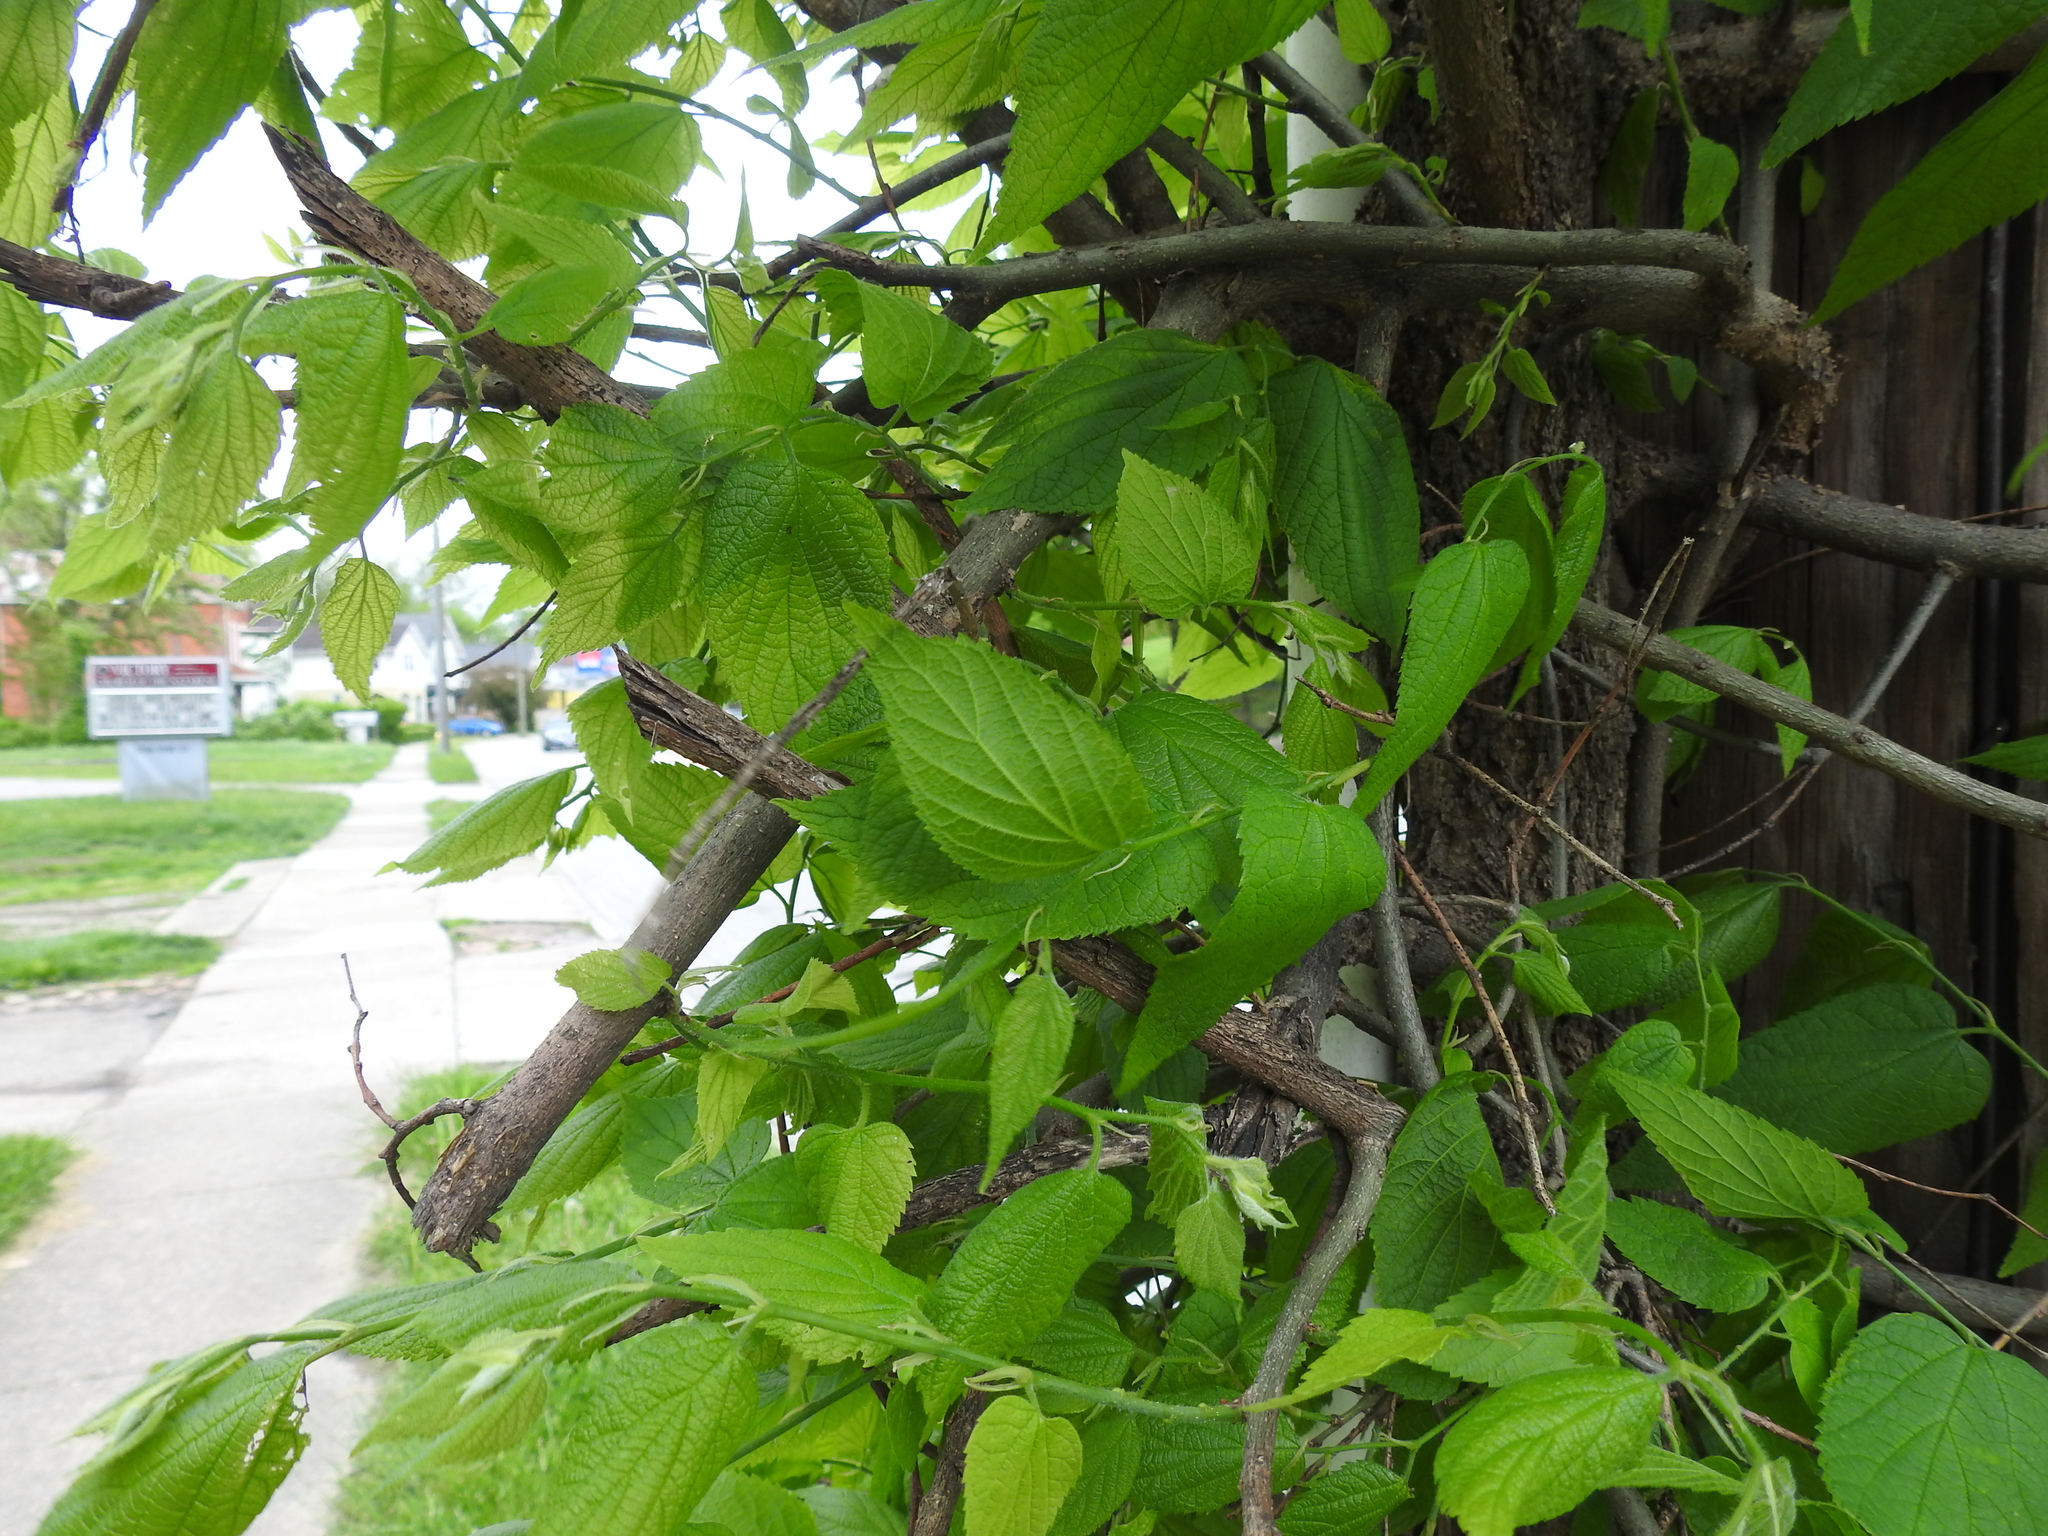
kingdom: Plantae
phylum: Tracheophyta
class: Magnoliopsida
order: Rosales
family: Cannabaceae
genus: Celtis
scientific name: Celtis occidentalis
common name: Common hackberry
